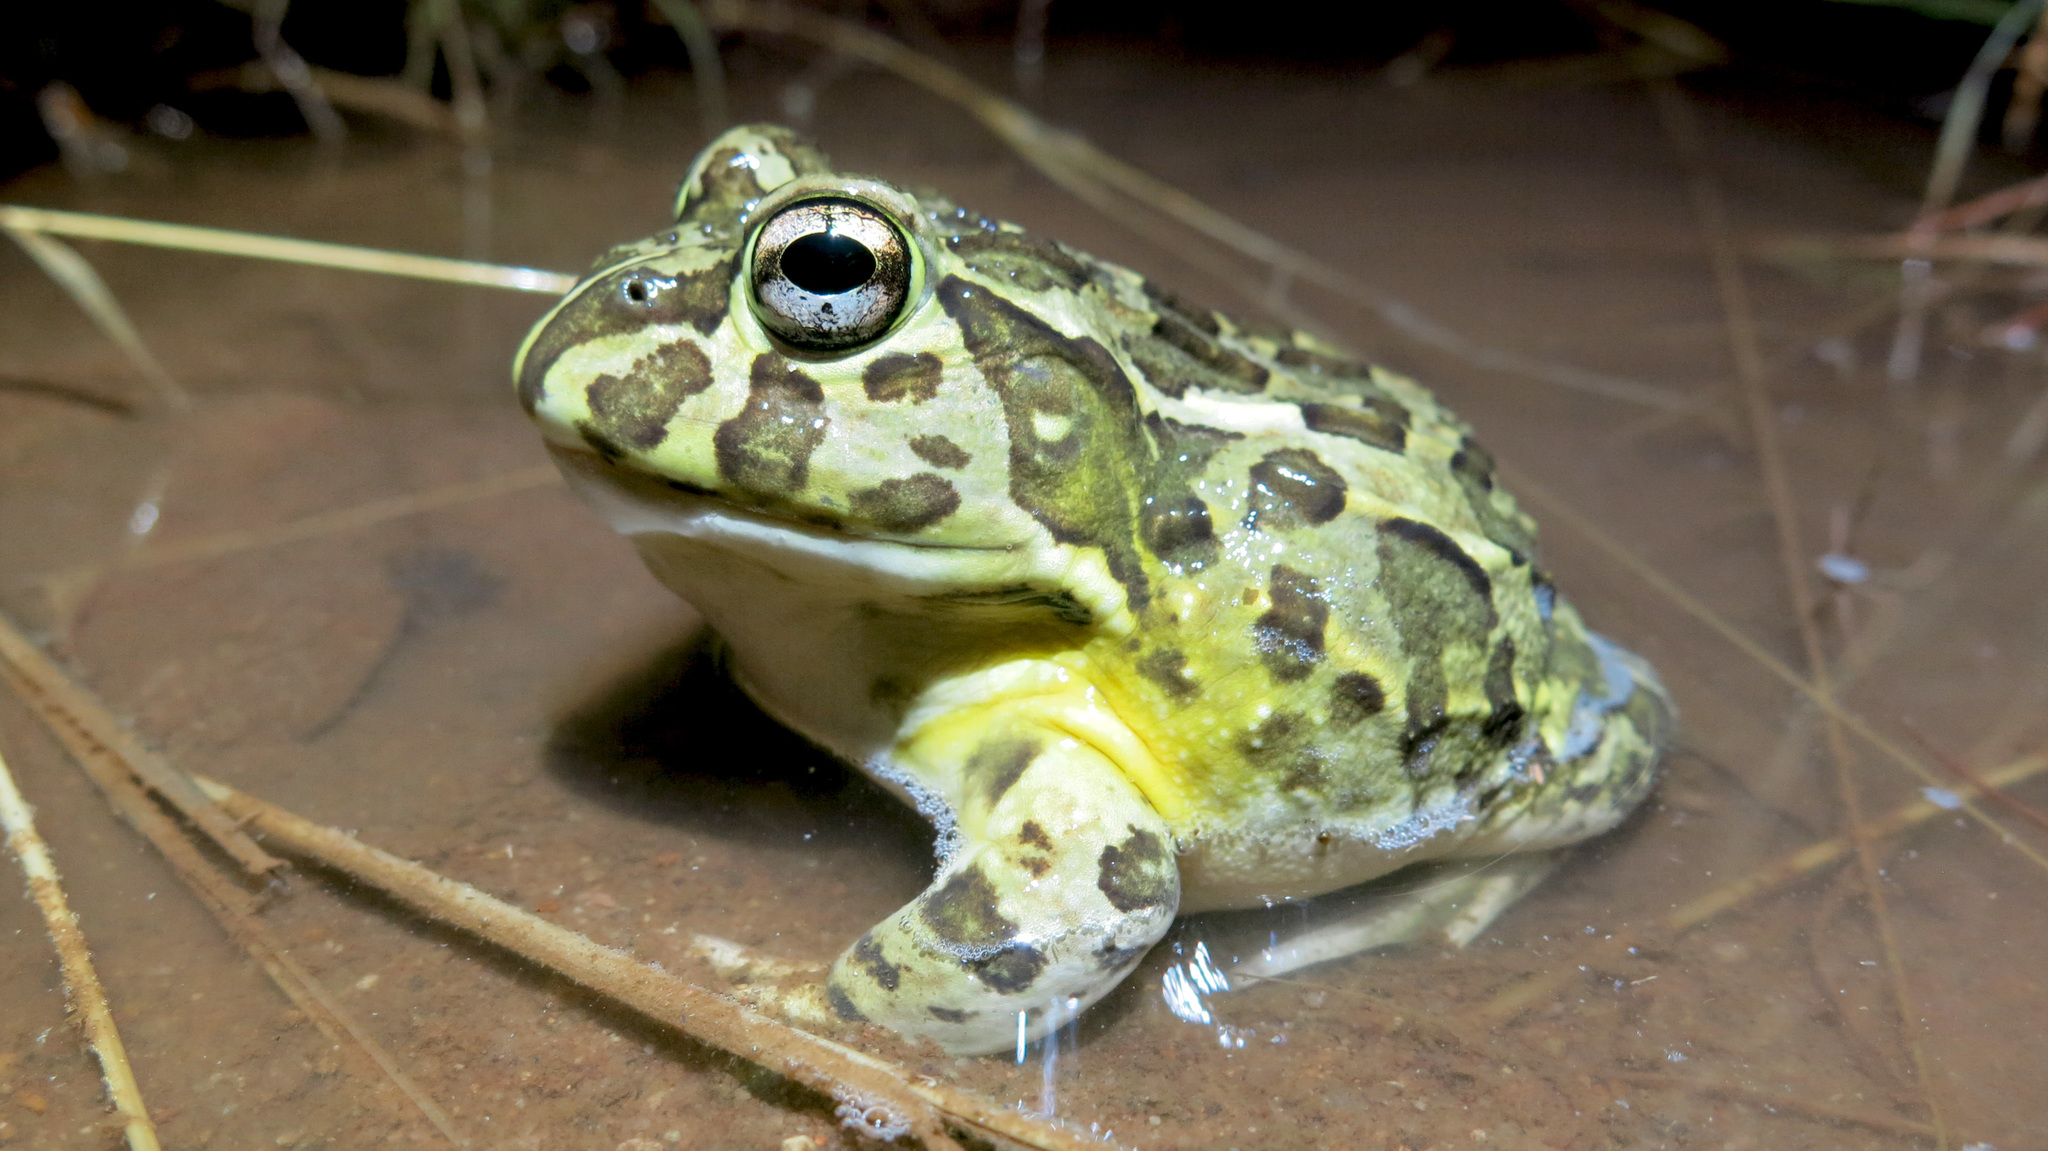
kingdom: Animalia
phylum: Chordata
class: Amphibia
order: Anura
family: Pyxicephalidae
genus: Pyxicephalus
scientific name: Pyxicephalus edulis
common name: Peter's bullfrog
